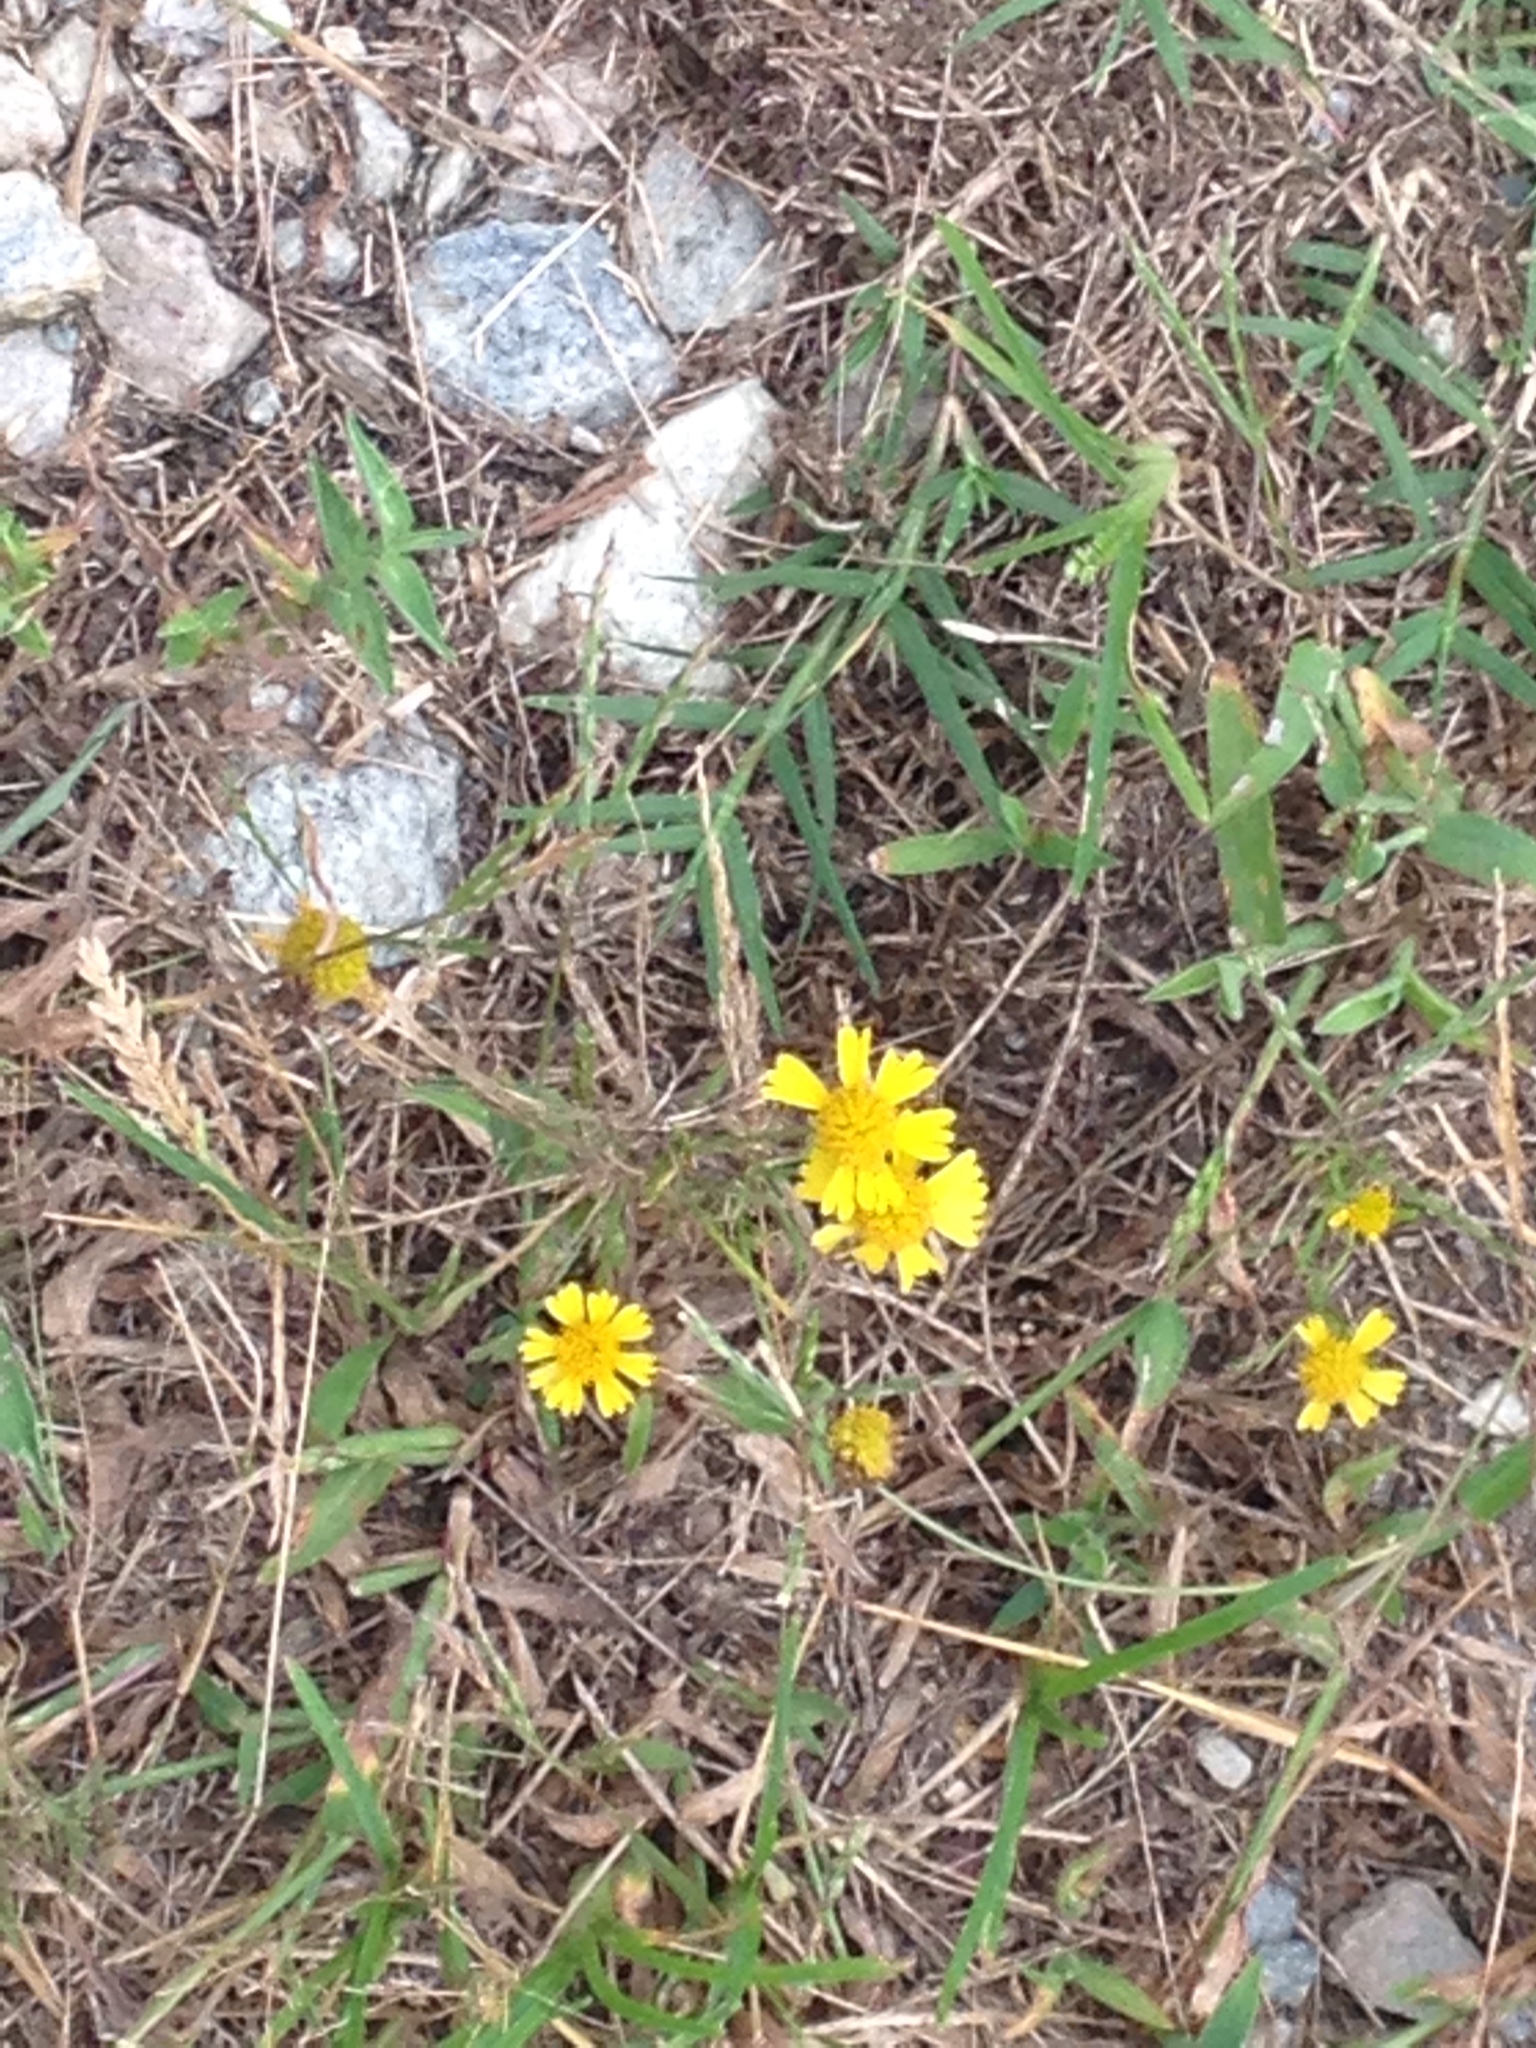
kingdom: Plantae
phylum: Tracheophyta
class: Magnoliopsida
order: Asterales
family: Asteraceae
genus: Helenium
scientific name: Helenium amarum
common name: Bitter sneezeweed
